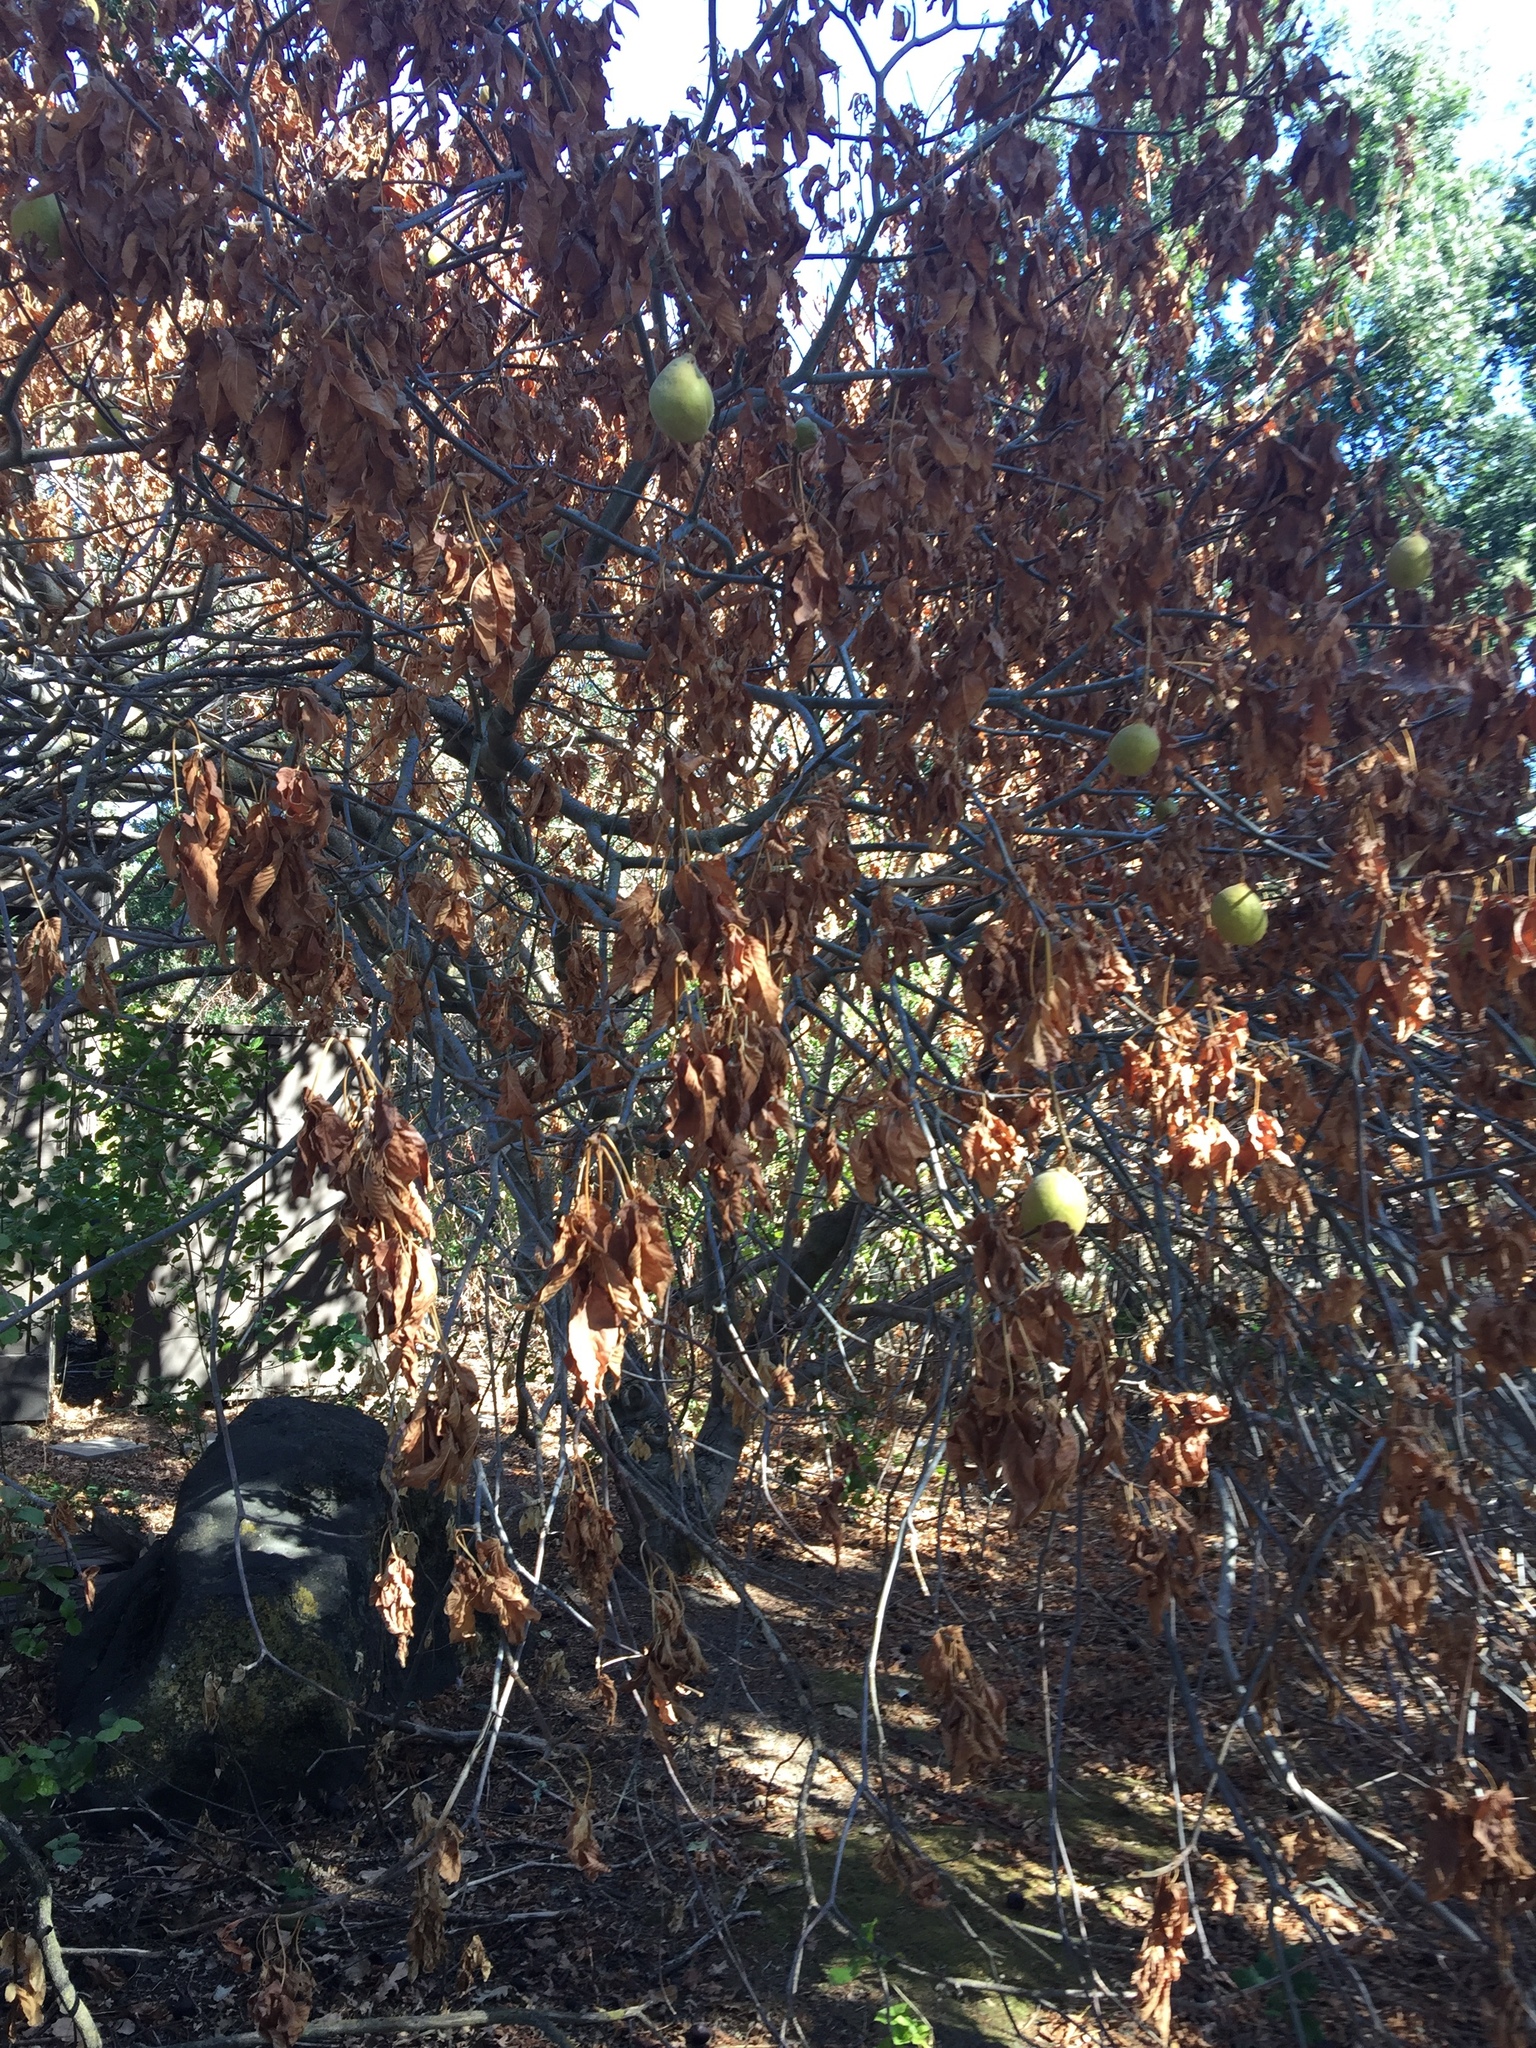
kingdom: Plantae
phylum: Tracheophyta
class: Magnoliopsida
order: Sapindales
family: Sapindaceae
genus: Aesculus
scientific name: Aesculus californica
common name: California buckeye
